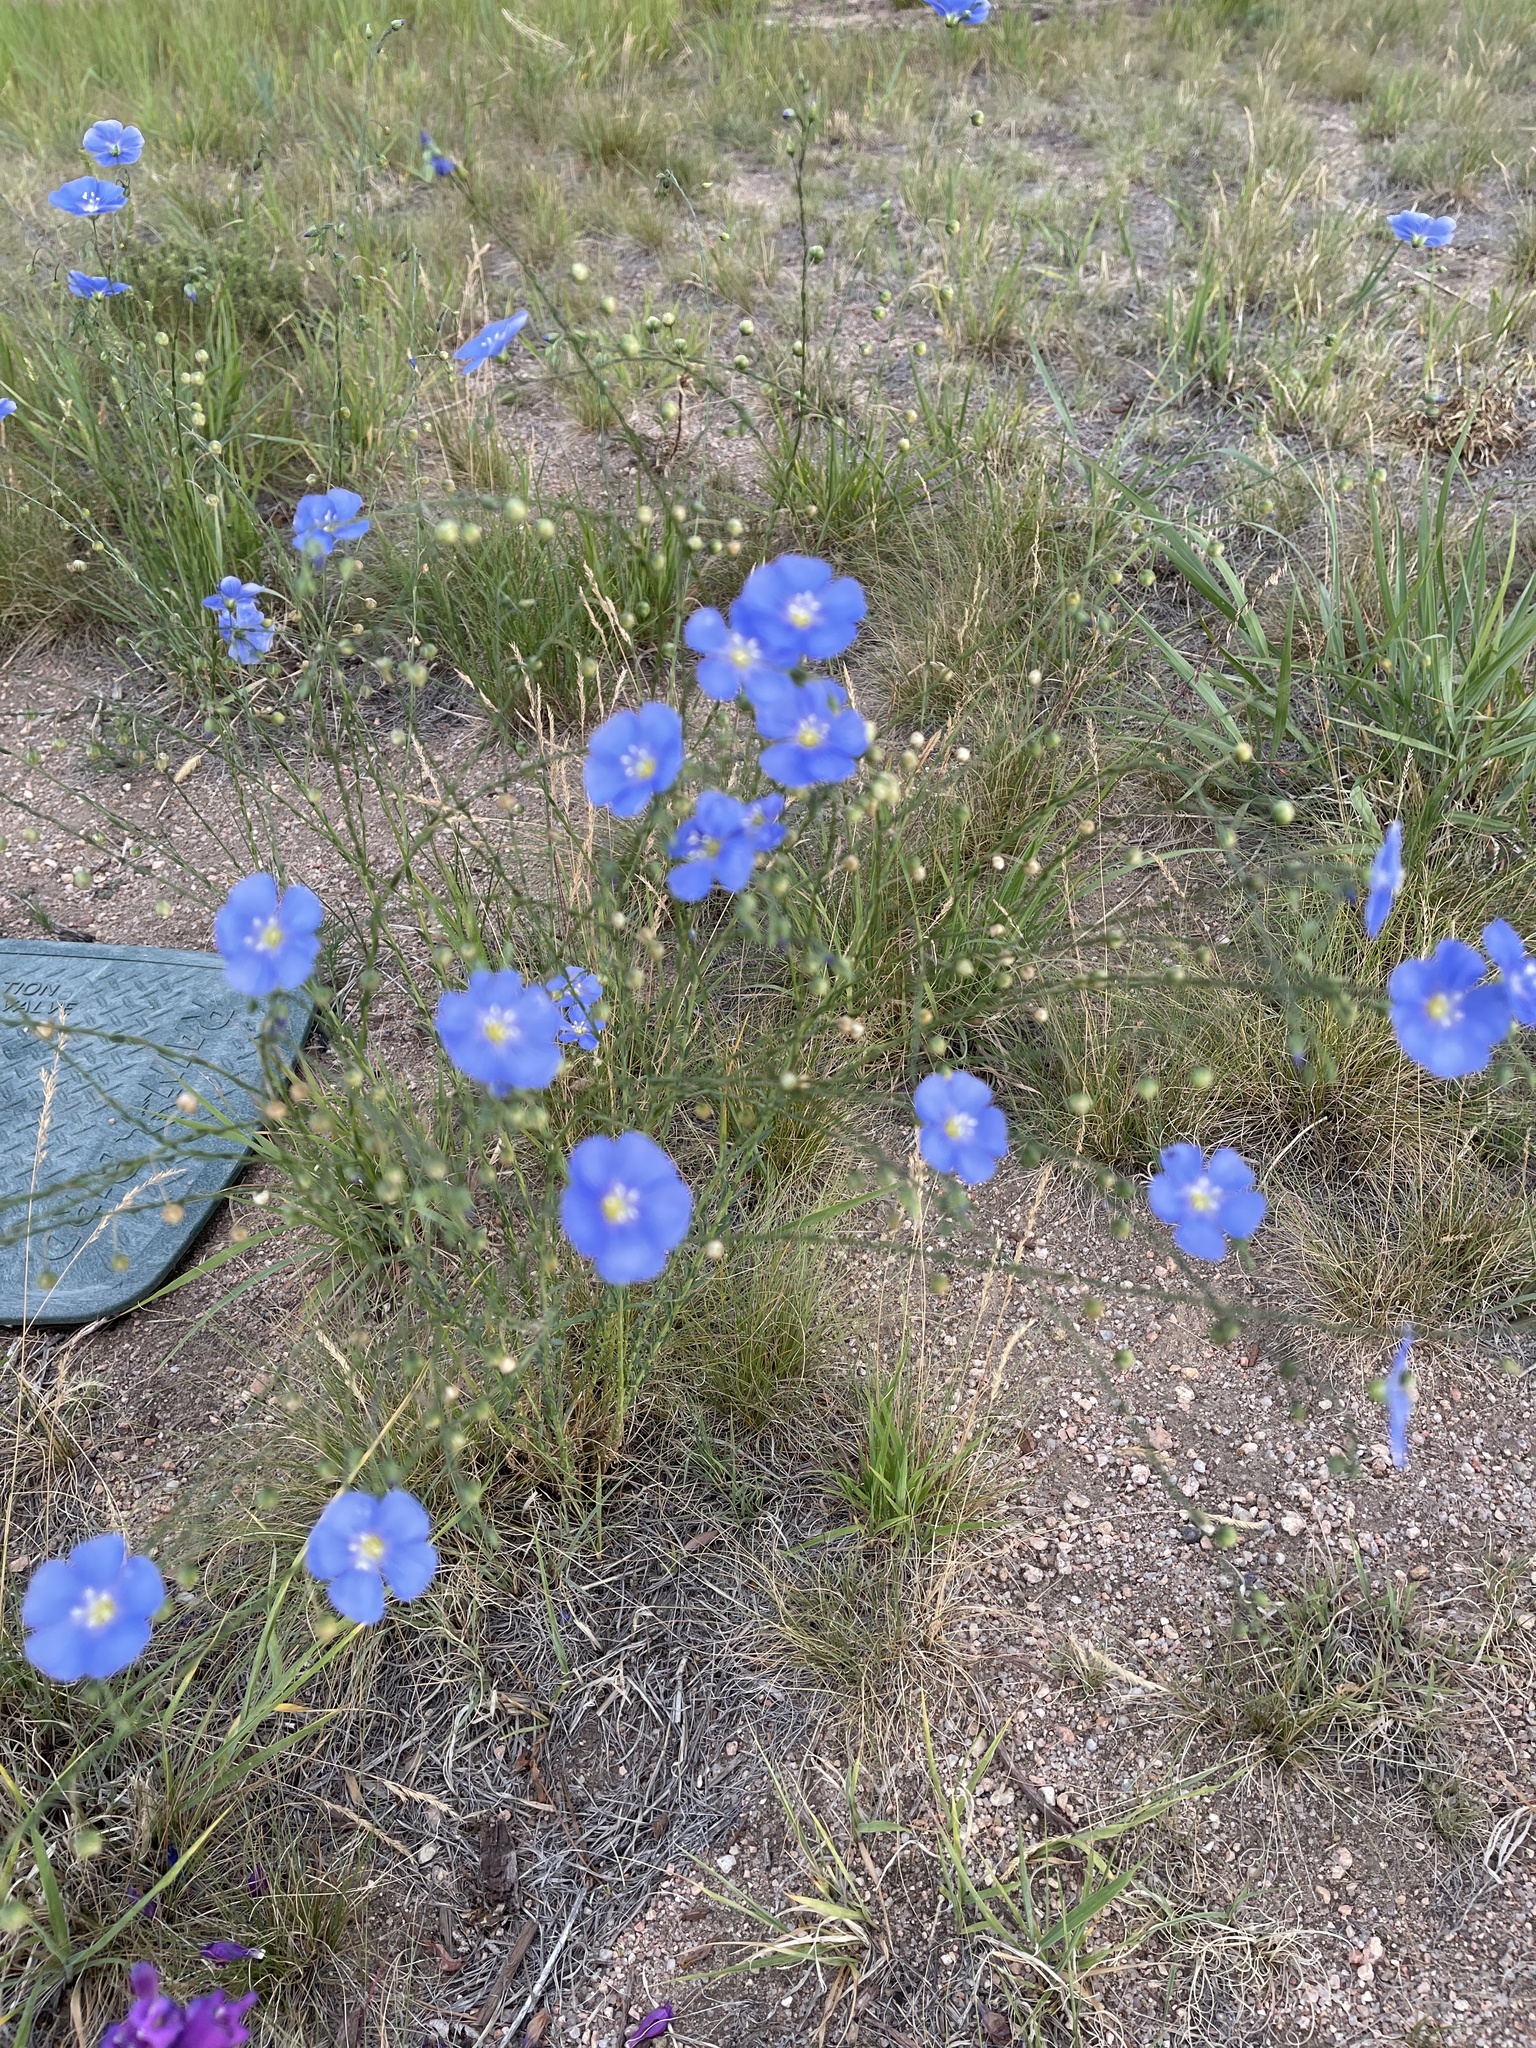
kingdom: Plantae
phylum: Tracheophyta
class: Magnoliopsida
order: Malpighiales
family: Linaceae
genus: Linum
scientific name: Linum lewisii
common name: Prairie flax
